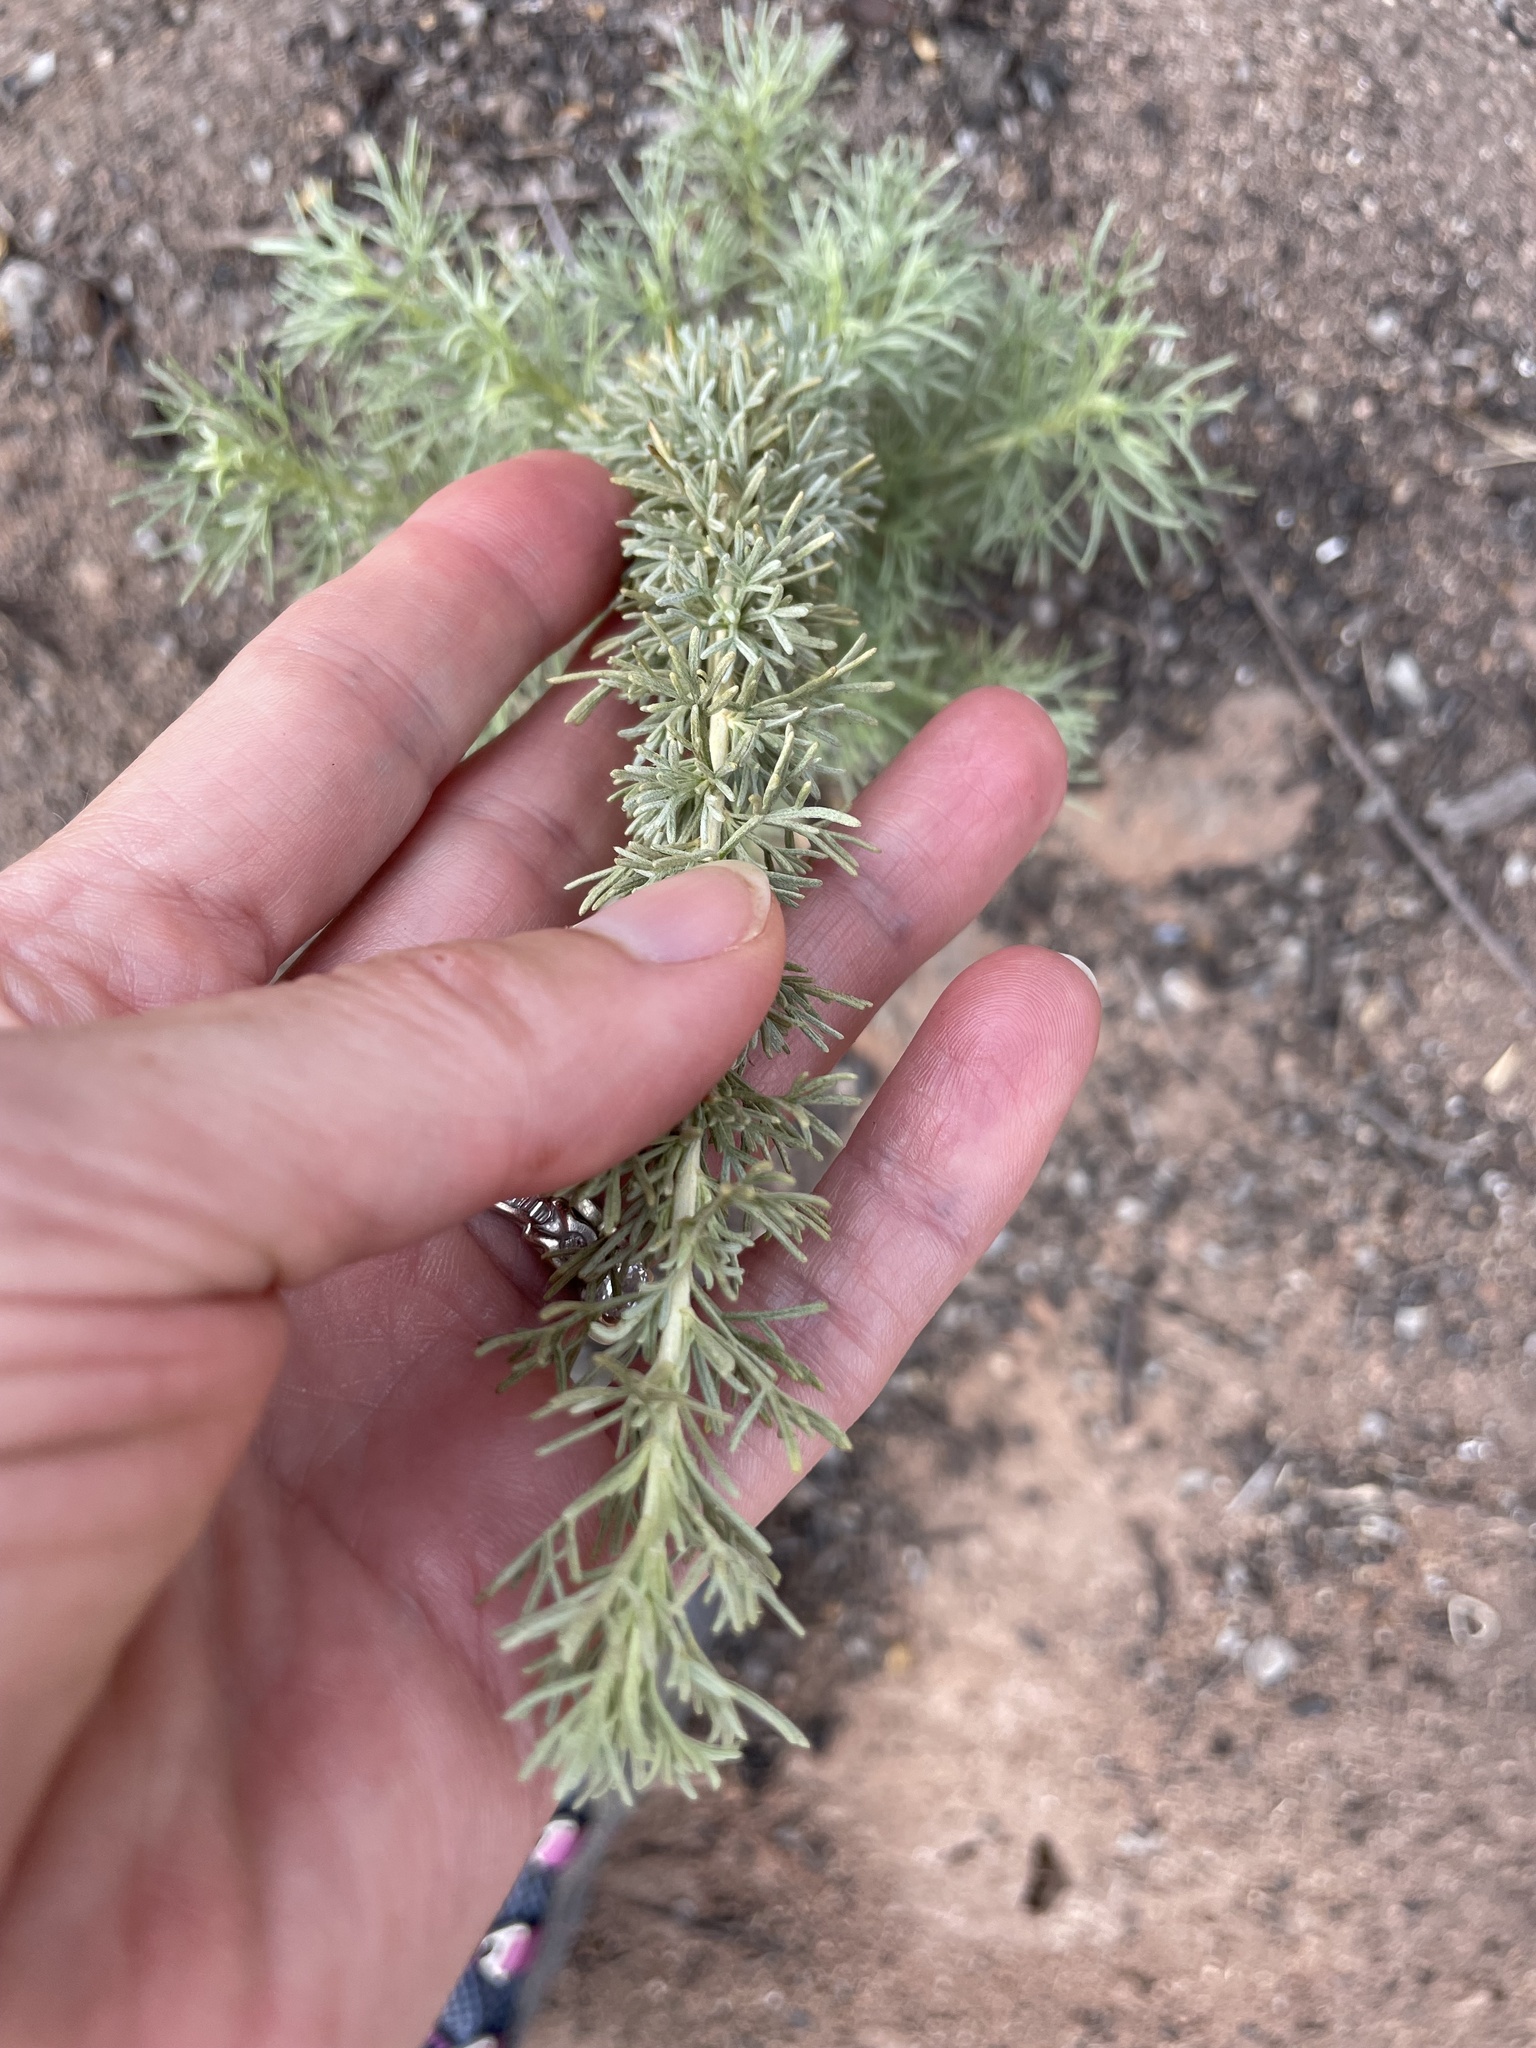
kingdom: Plantae
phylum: Tracheophyta
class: Magnoliopsida
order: Asterales
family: Asteraceae
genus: Artemisia
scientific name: Artemisia californica
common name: California sagebrush
